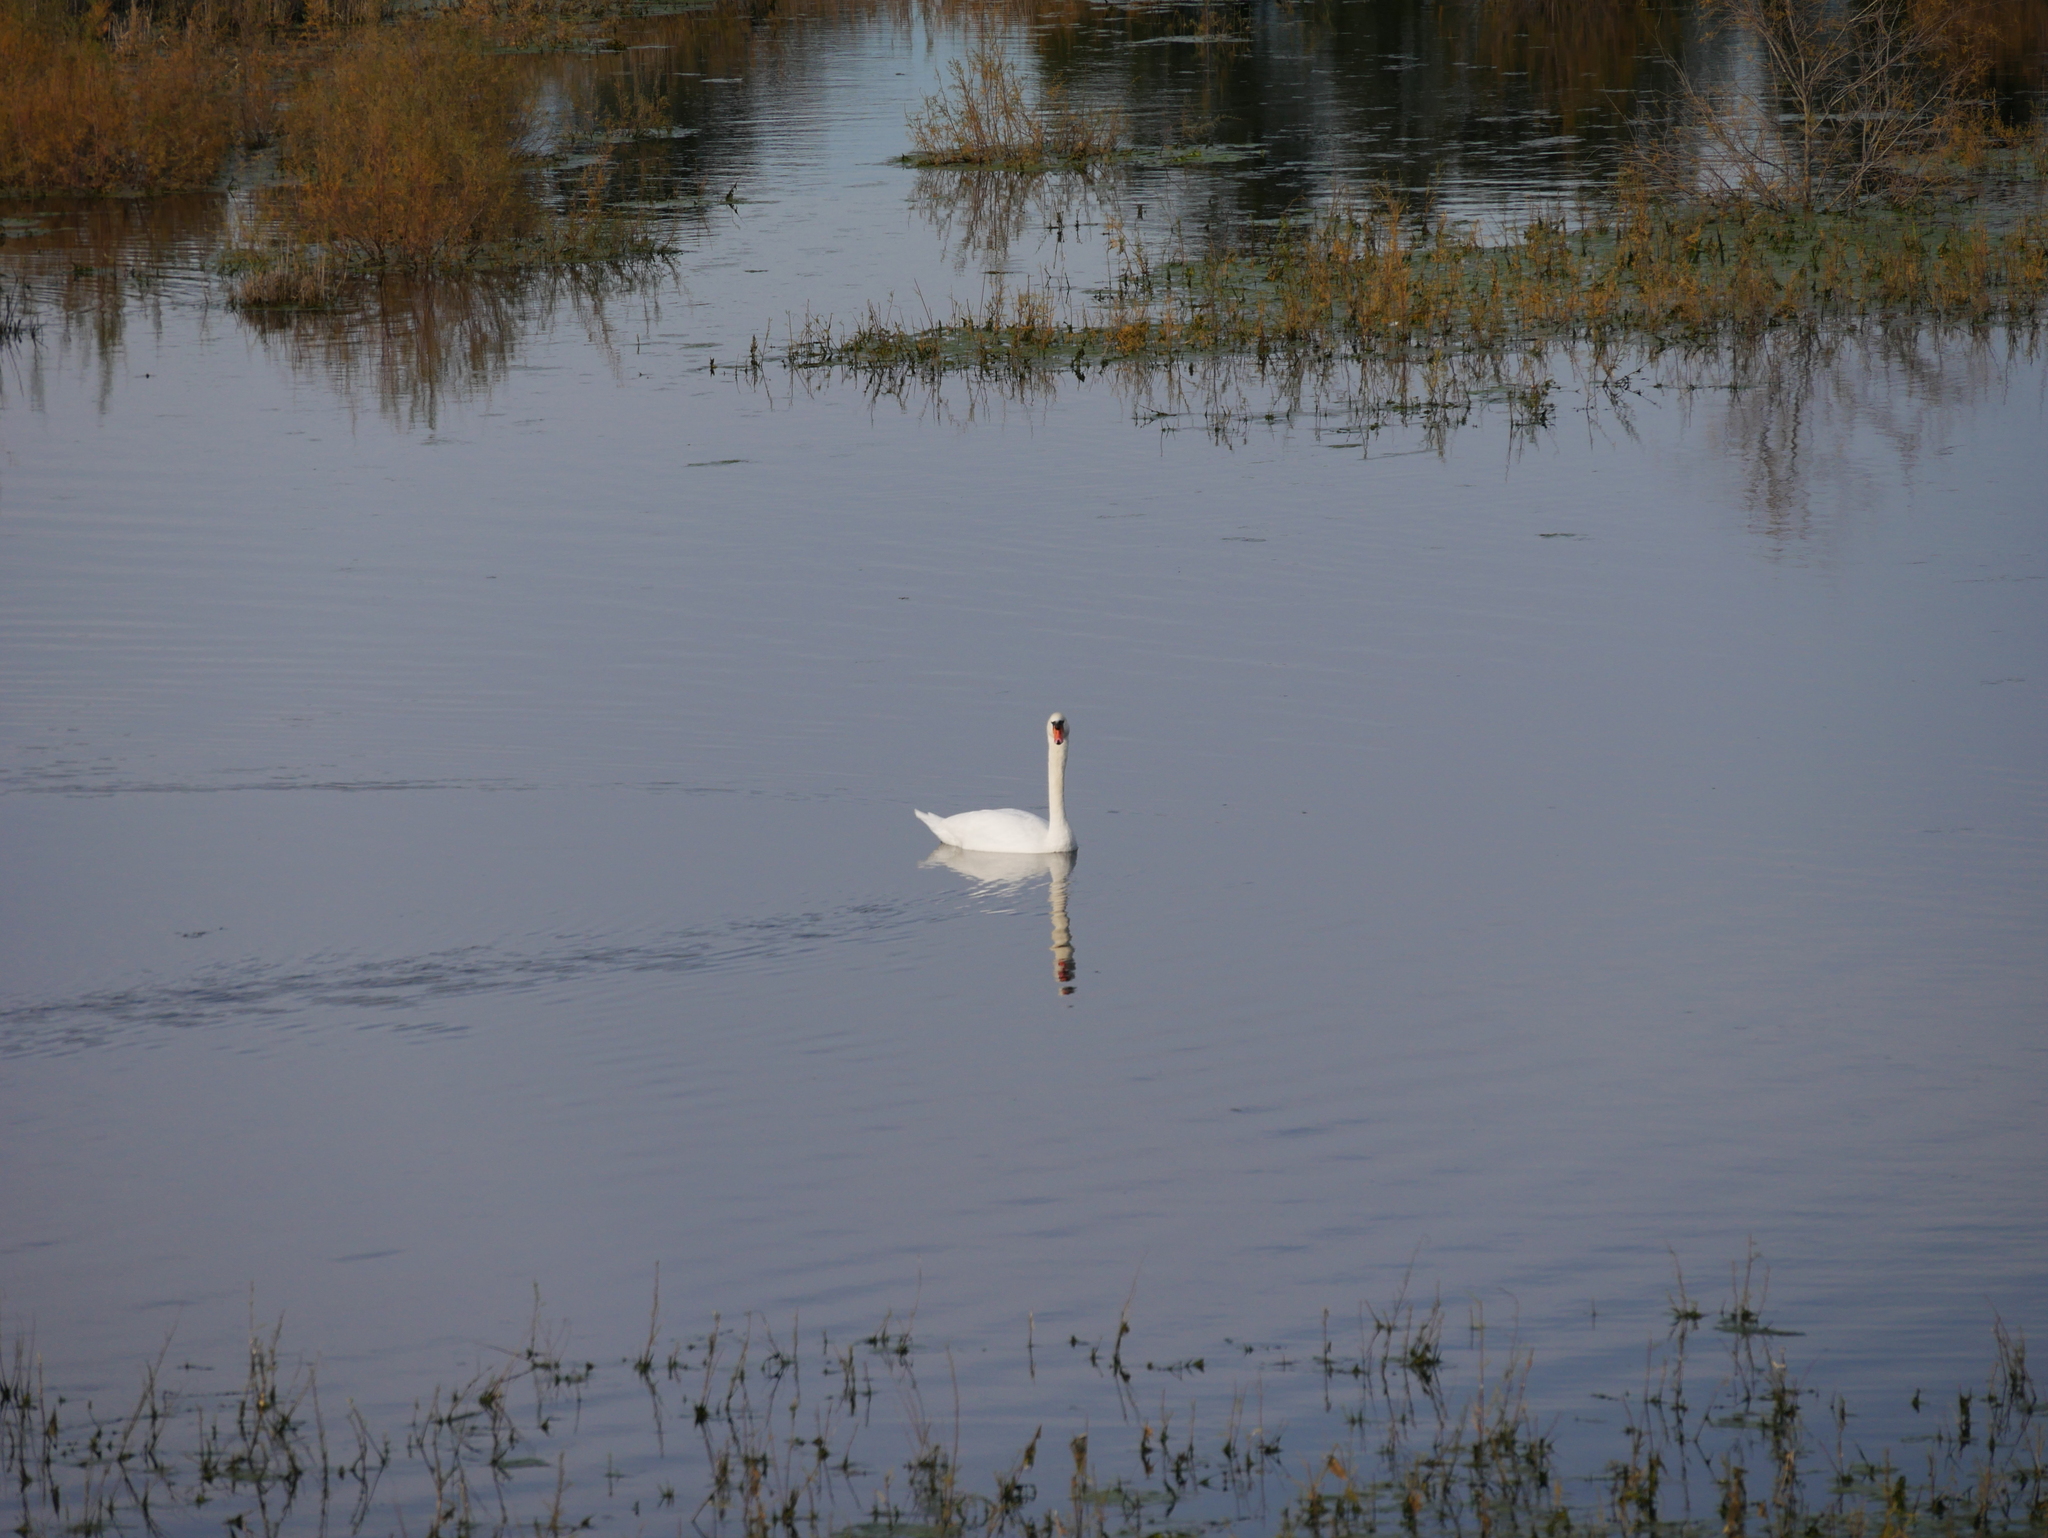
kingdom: Animalia
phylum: Chordata
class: Aves
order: Anseriformes
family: Anatidae
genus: Cygnus
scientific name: Cygnus olor
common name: Mute swan
